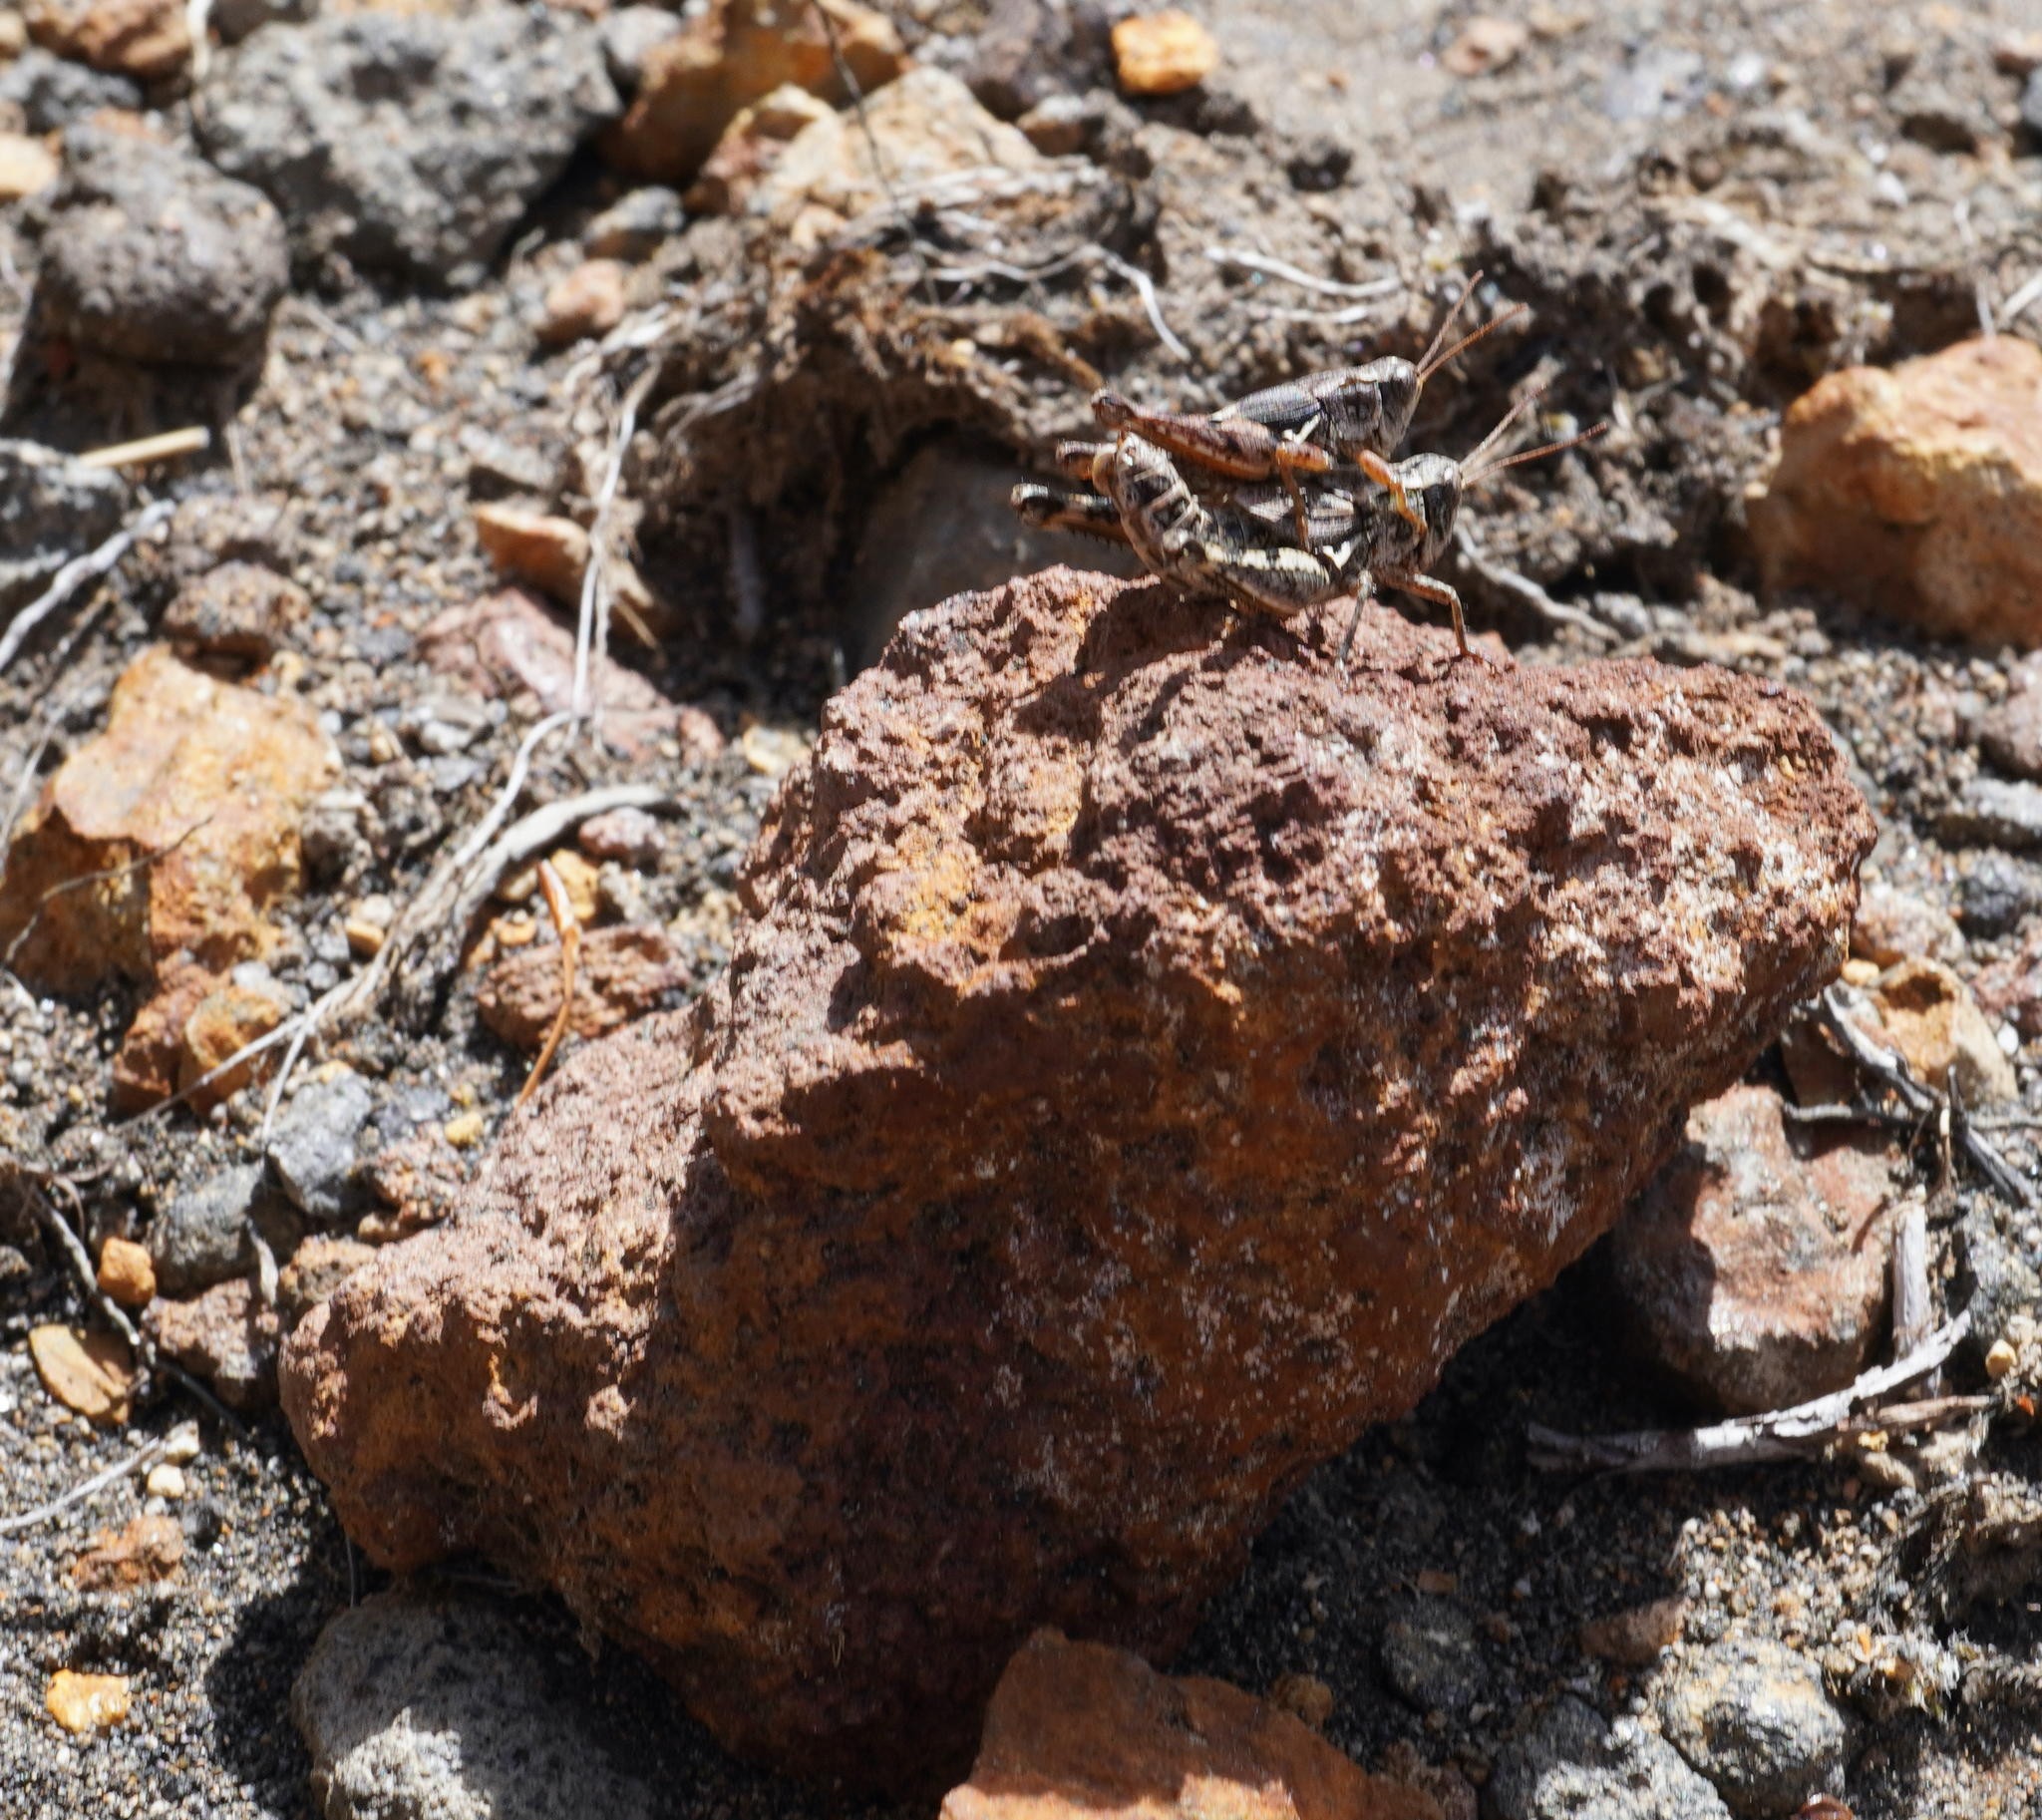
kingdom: Animalia
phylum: Arthropoda
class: Insecta
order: Orthoptera
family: Acrididae
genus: Phaulacridium
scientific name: Phaulacridium marginale
